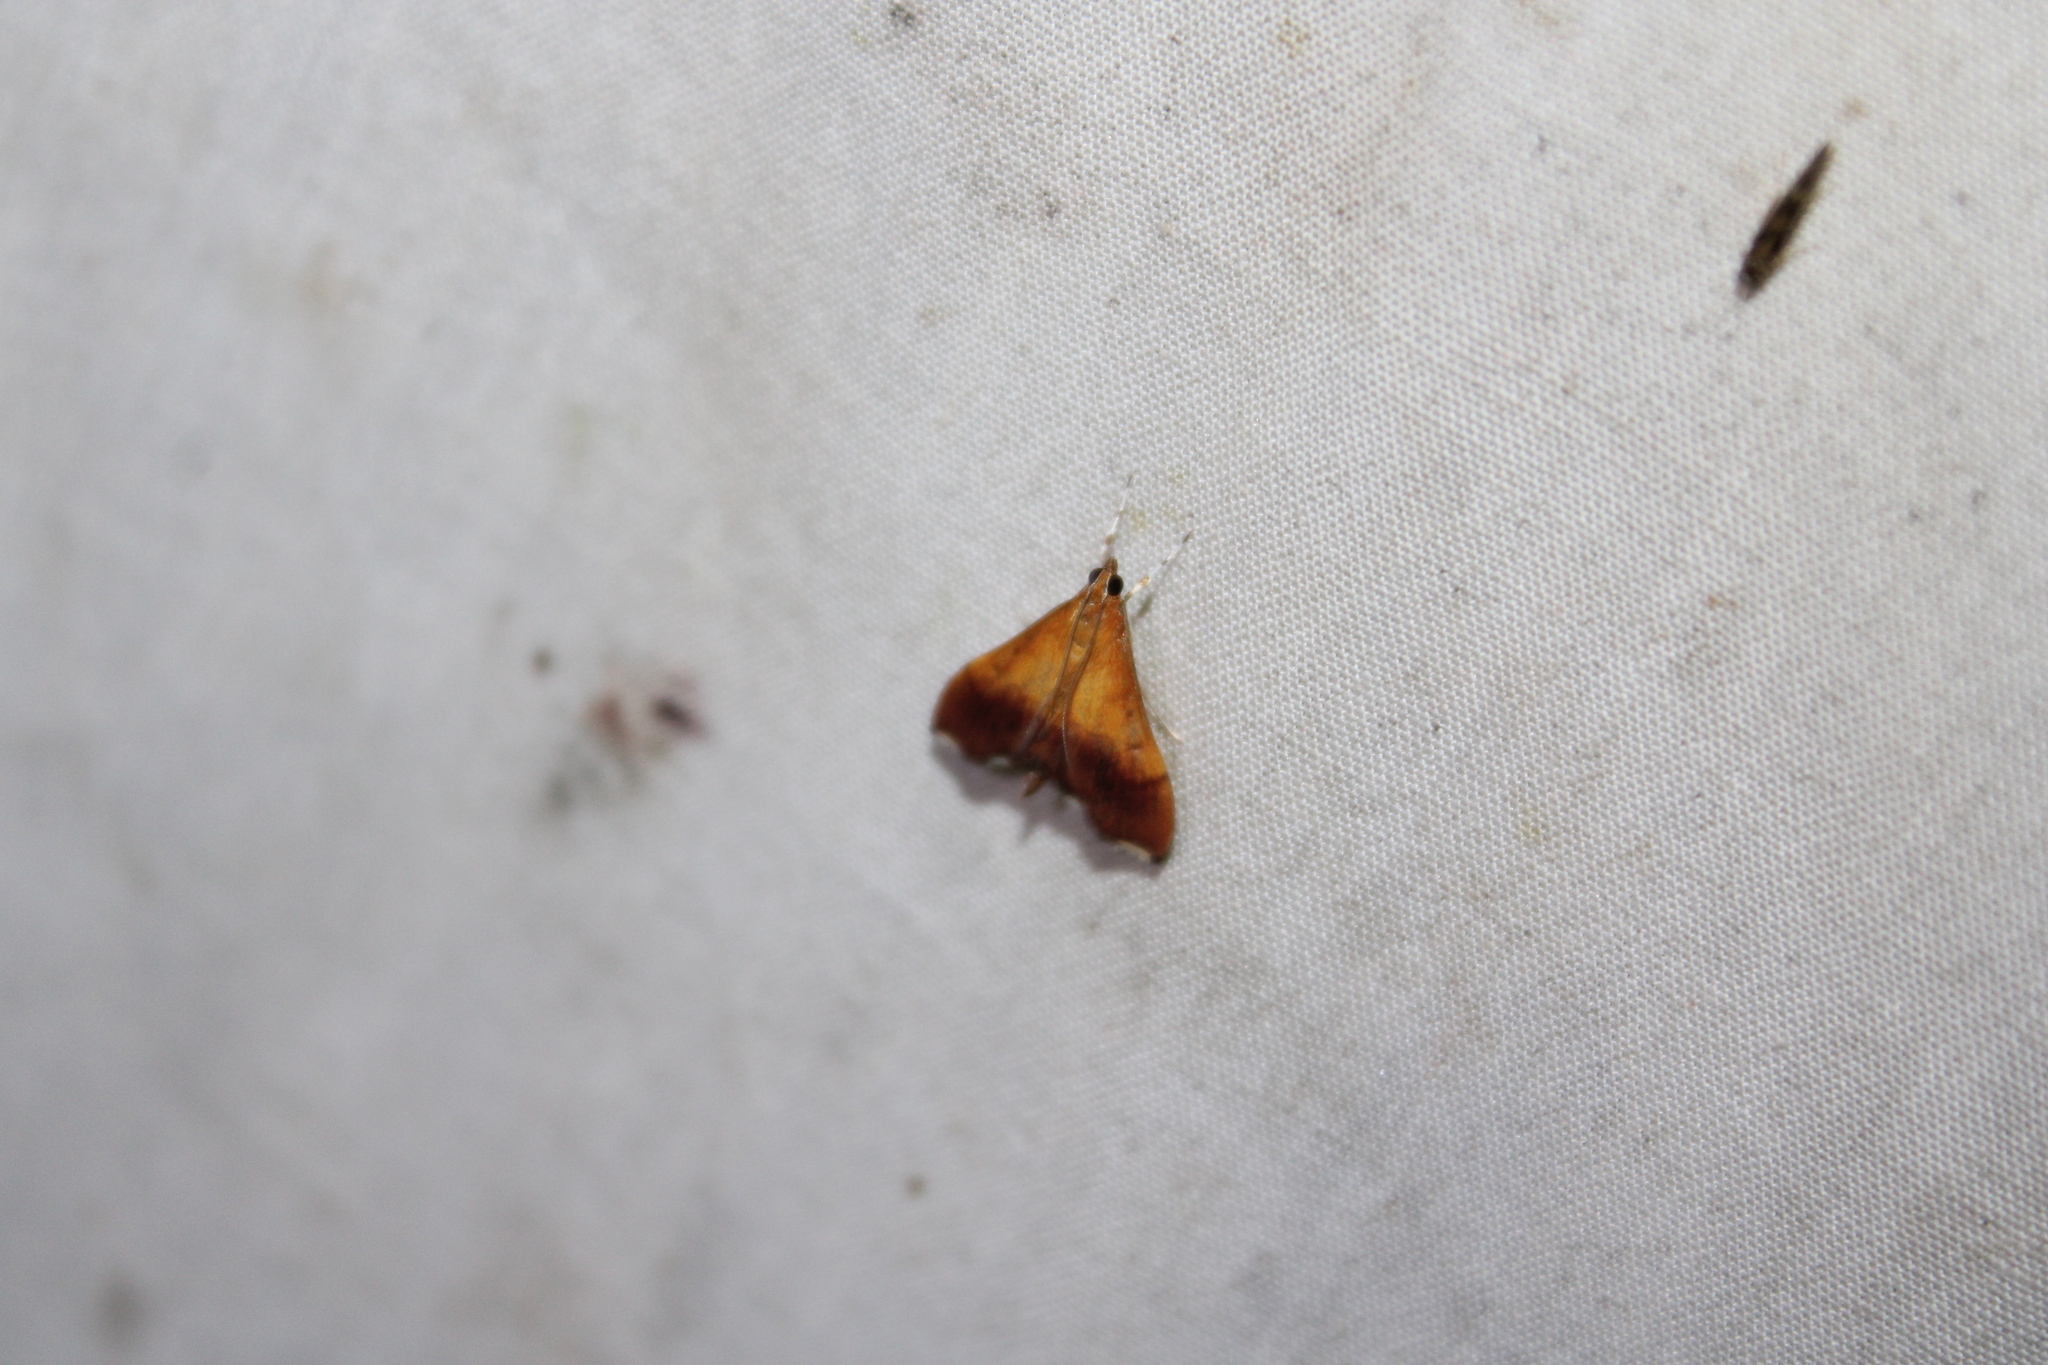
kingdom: Animalia
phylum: Arthropoda
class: Insecta
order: Lepidoptera
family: Crambidae
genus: Pyrausta
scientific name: Pyrausta bicoloralis
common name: Bicolored pyrausta moth
